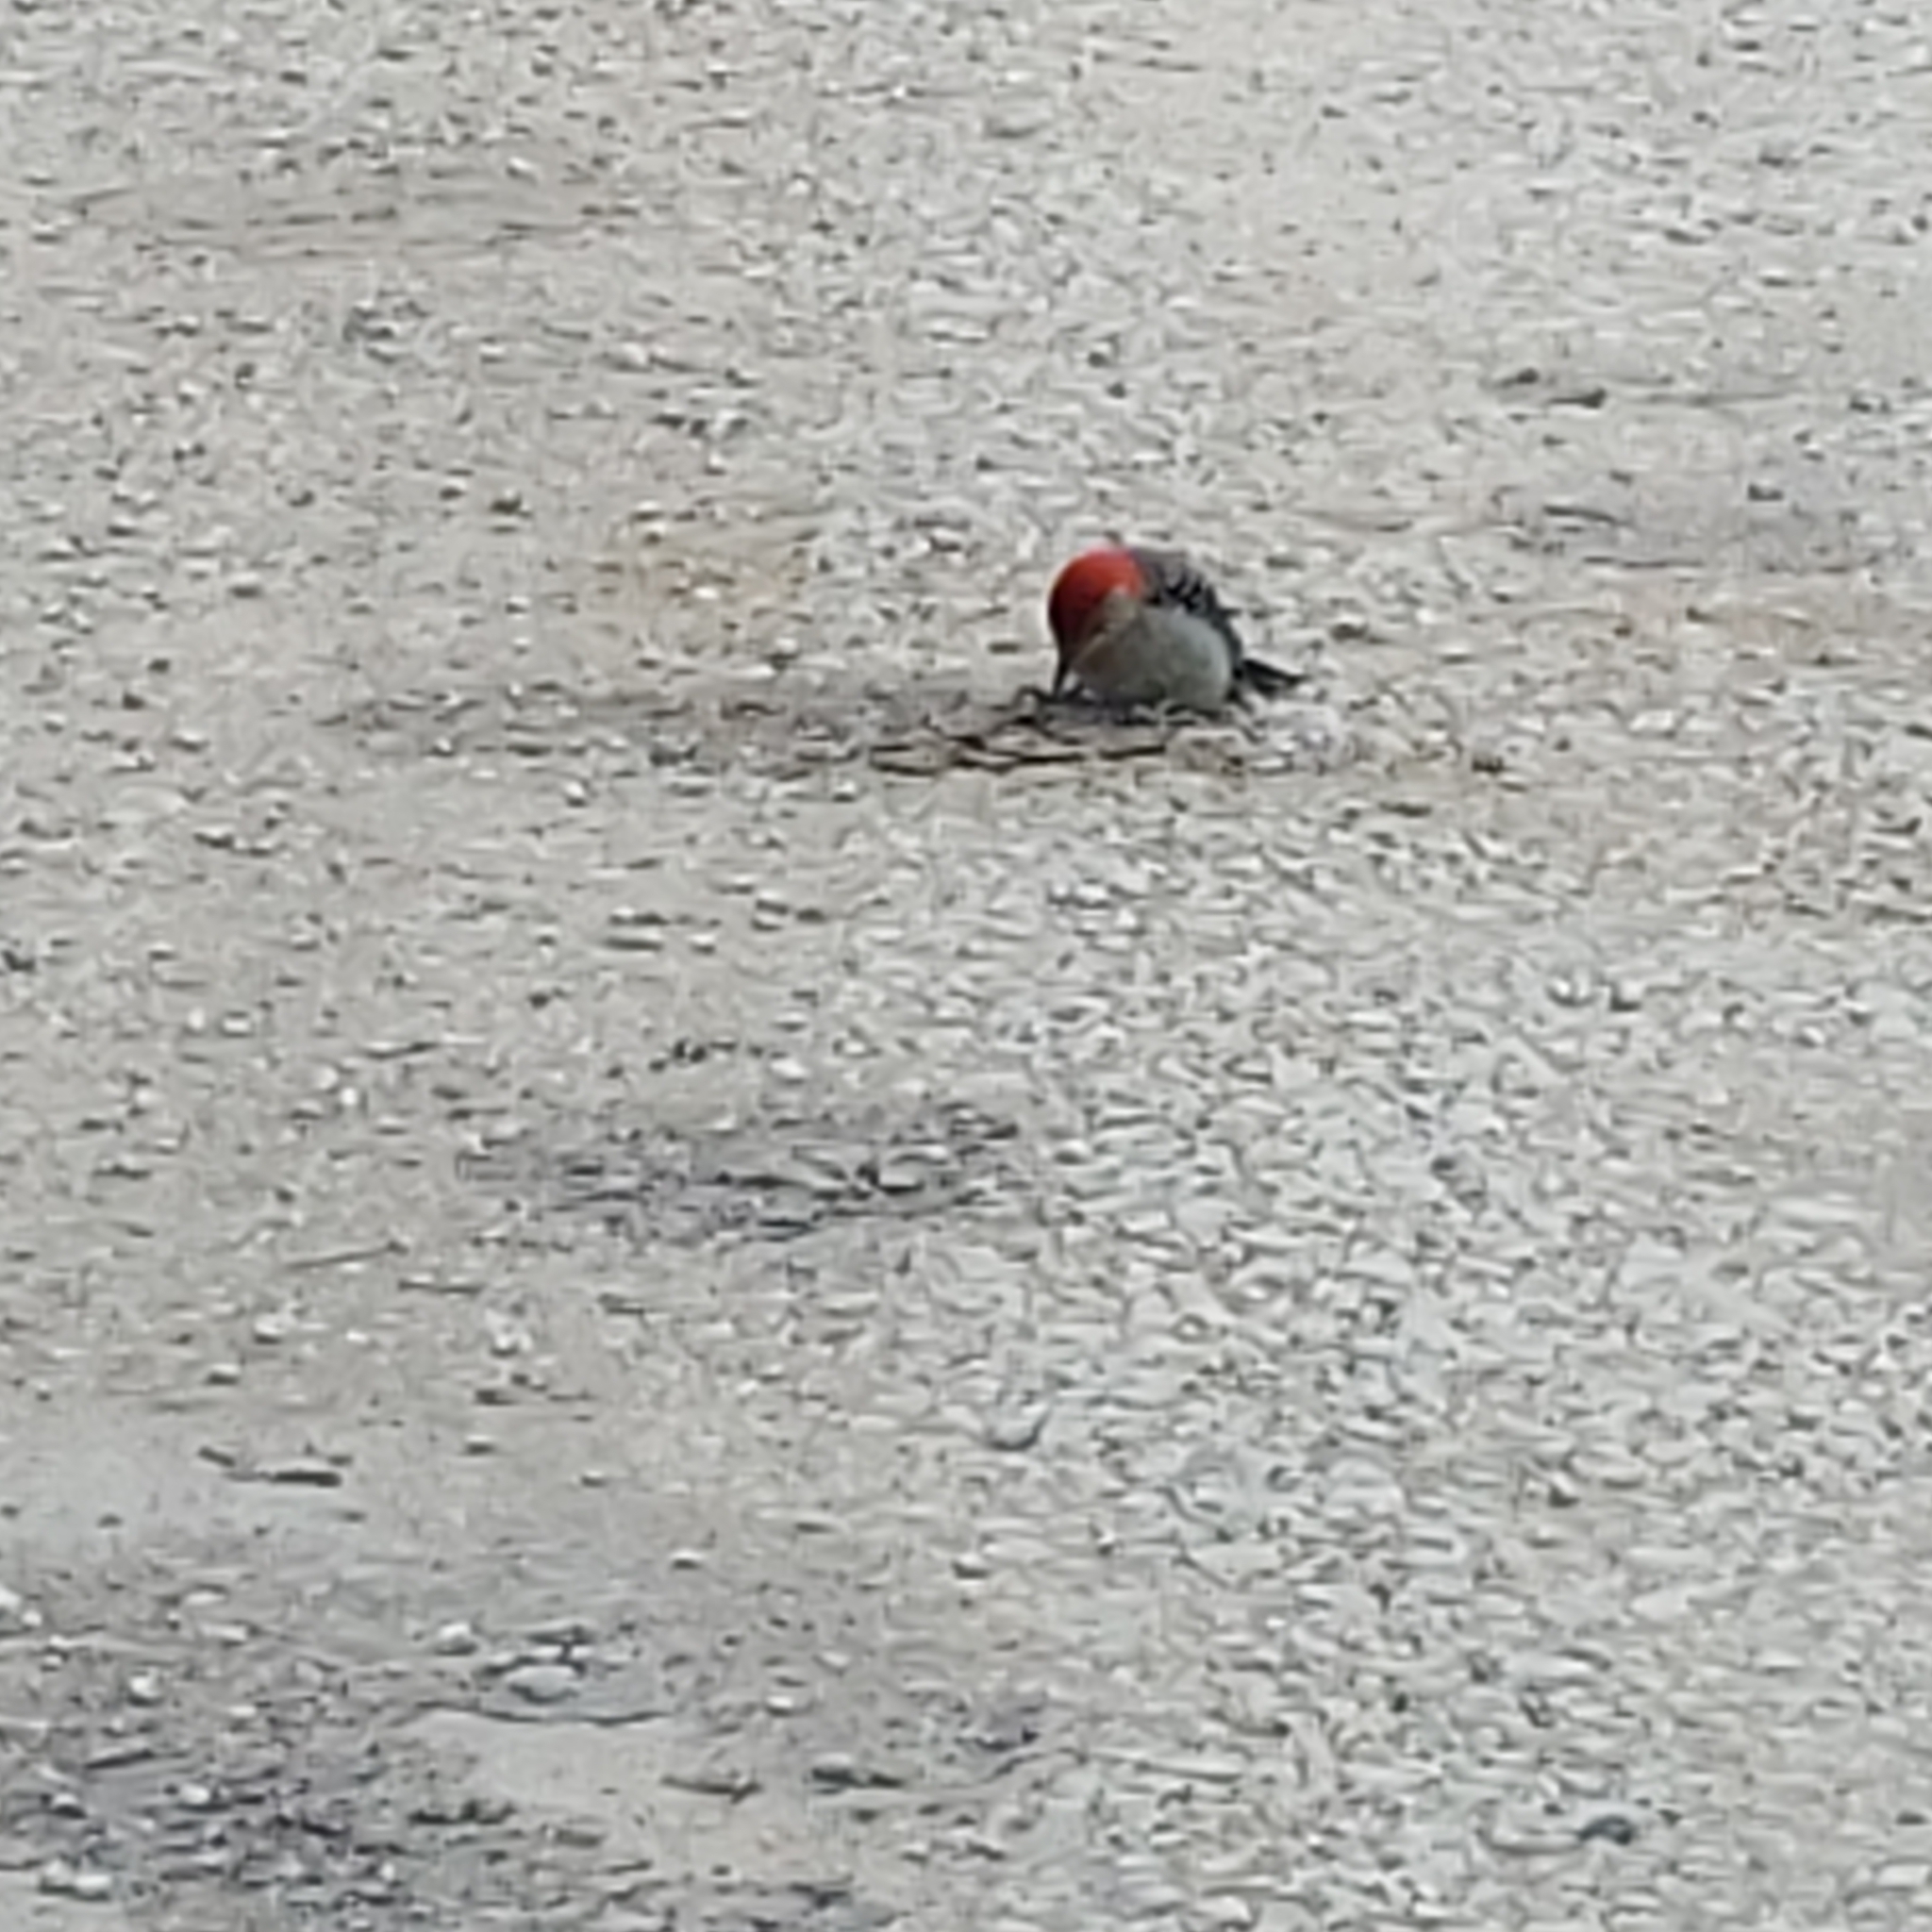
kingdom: Animalia
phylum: Chordata
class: Aves
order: Piciformes
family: Picidae
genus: Melanerpes
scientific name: Melanerpes carolinus
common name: Red-bellied woodpecker
